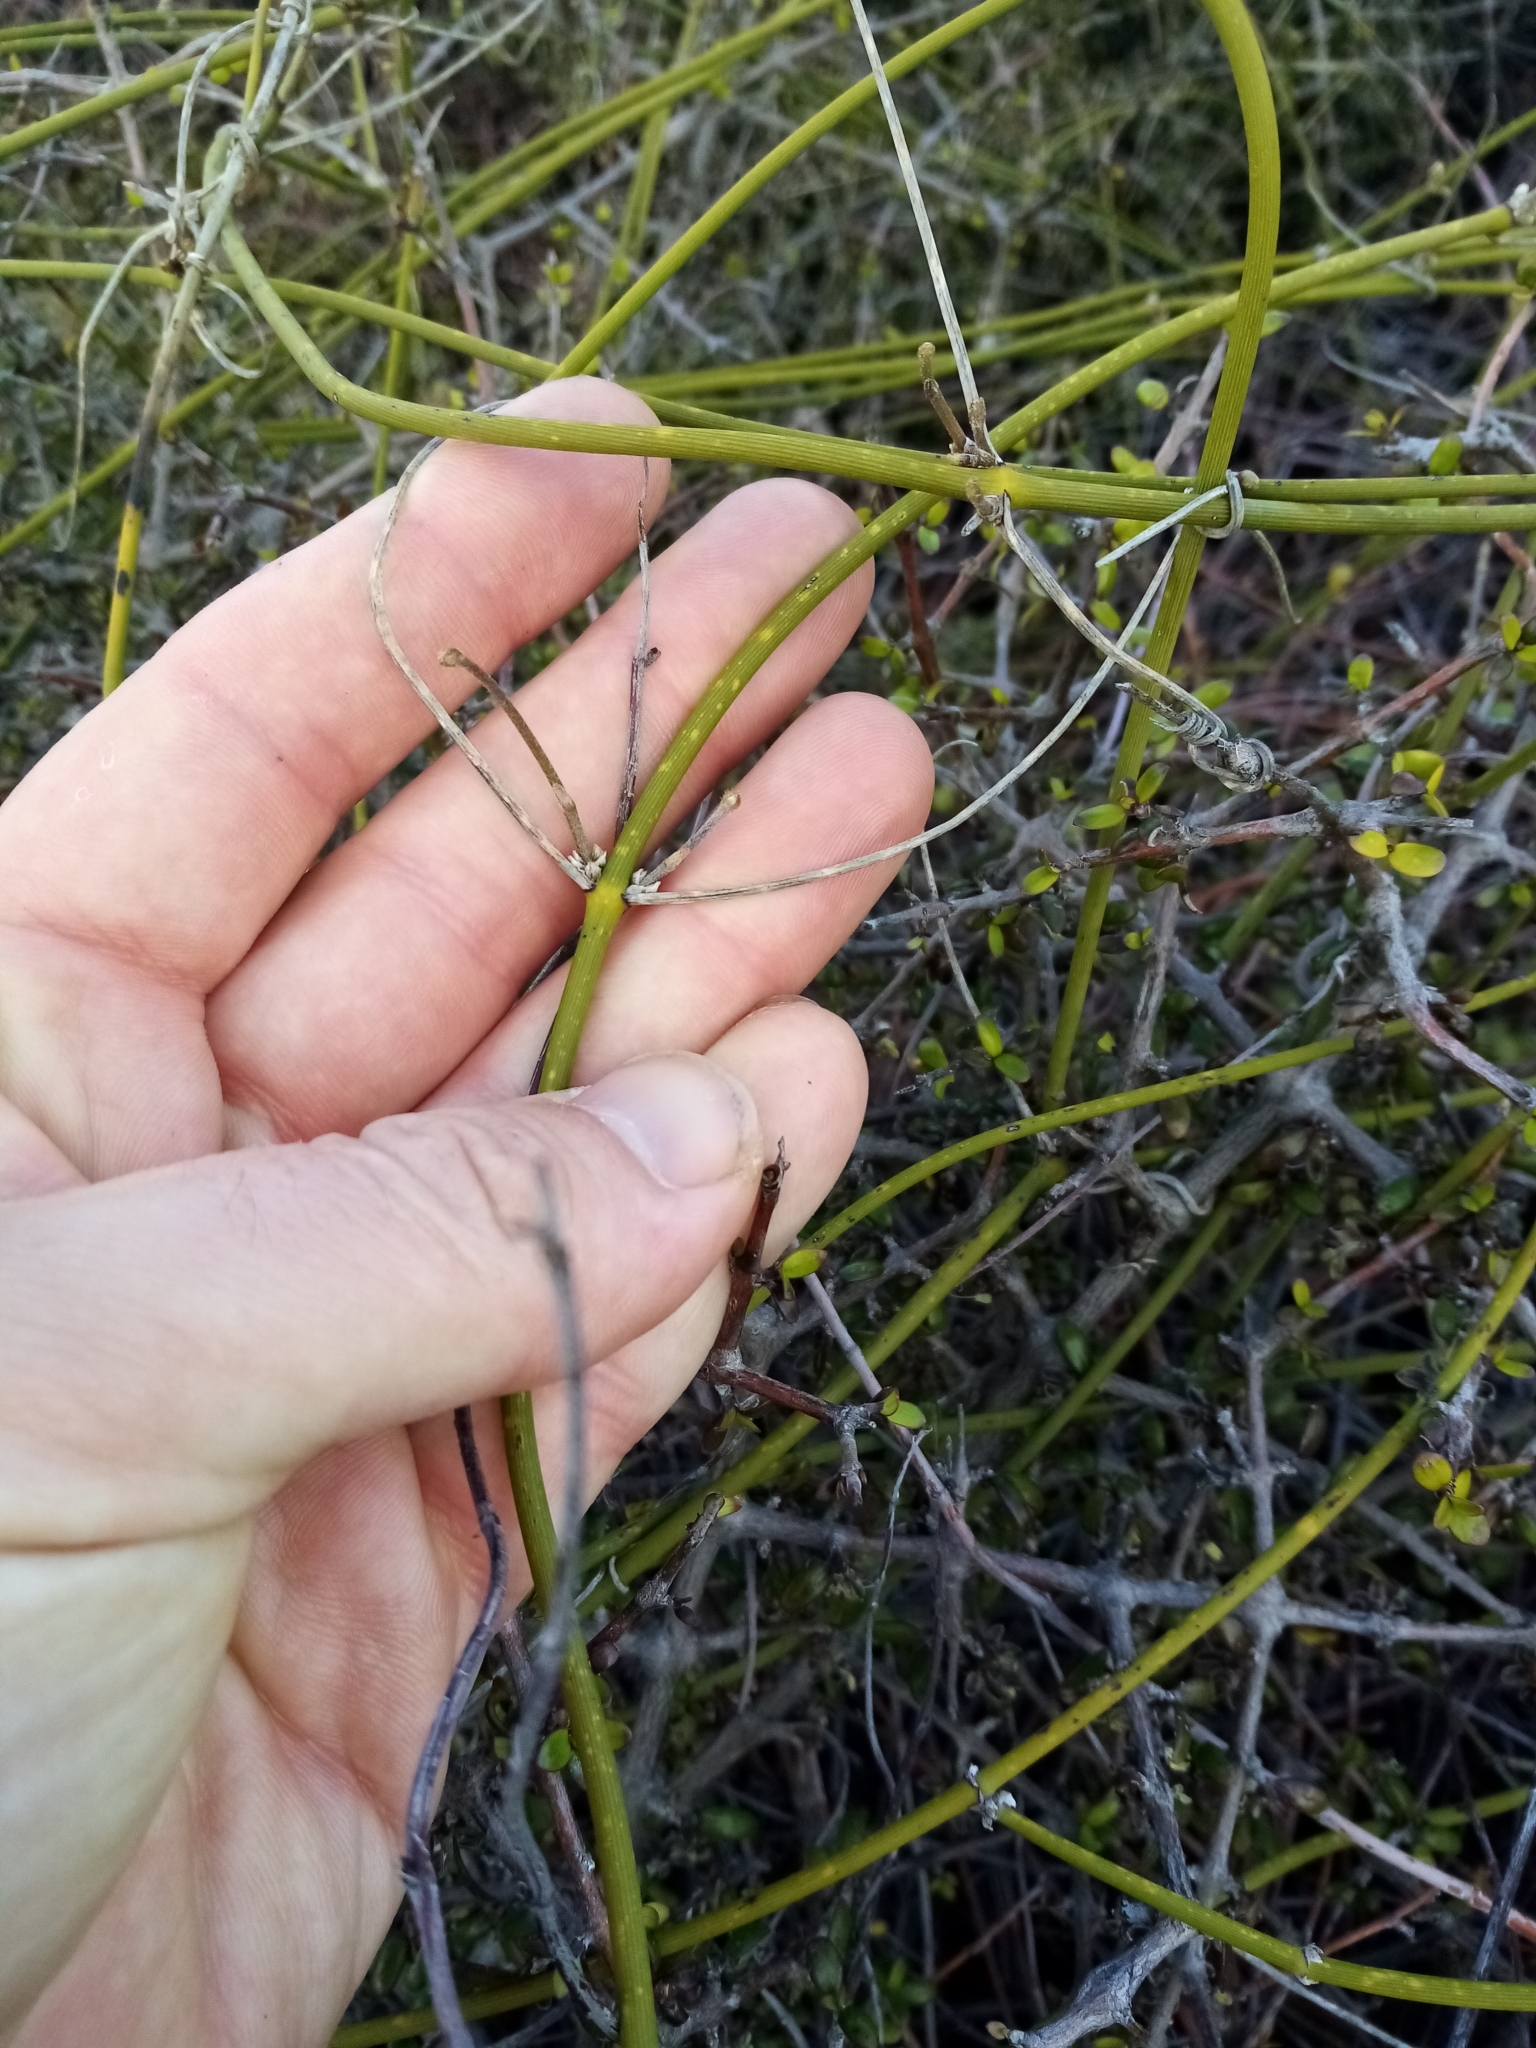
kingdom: Plantae
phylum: Tracheophyta
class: Magnoliopsida
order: Ranunculales
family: Ranunculaceae
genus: Clematis
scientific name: Clematis afoliata
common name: Rush-stem clematis
